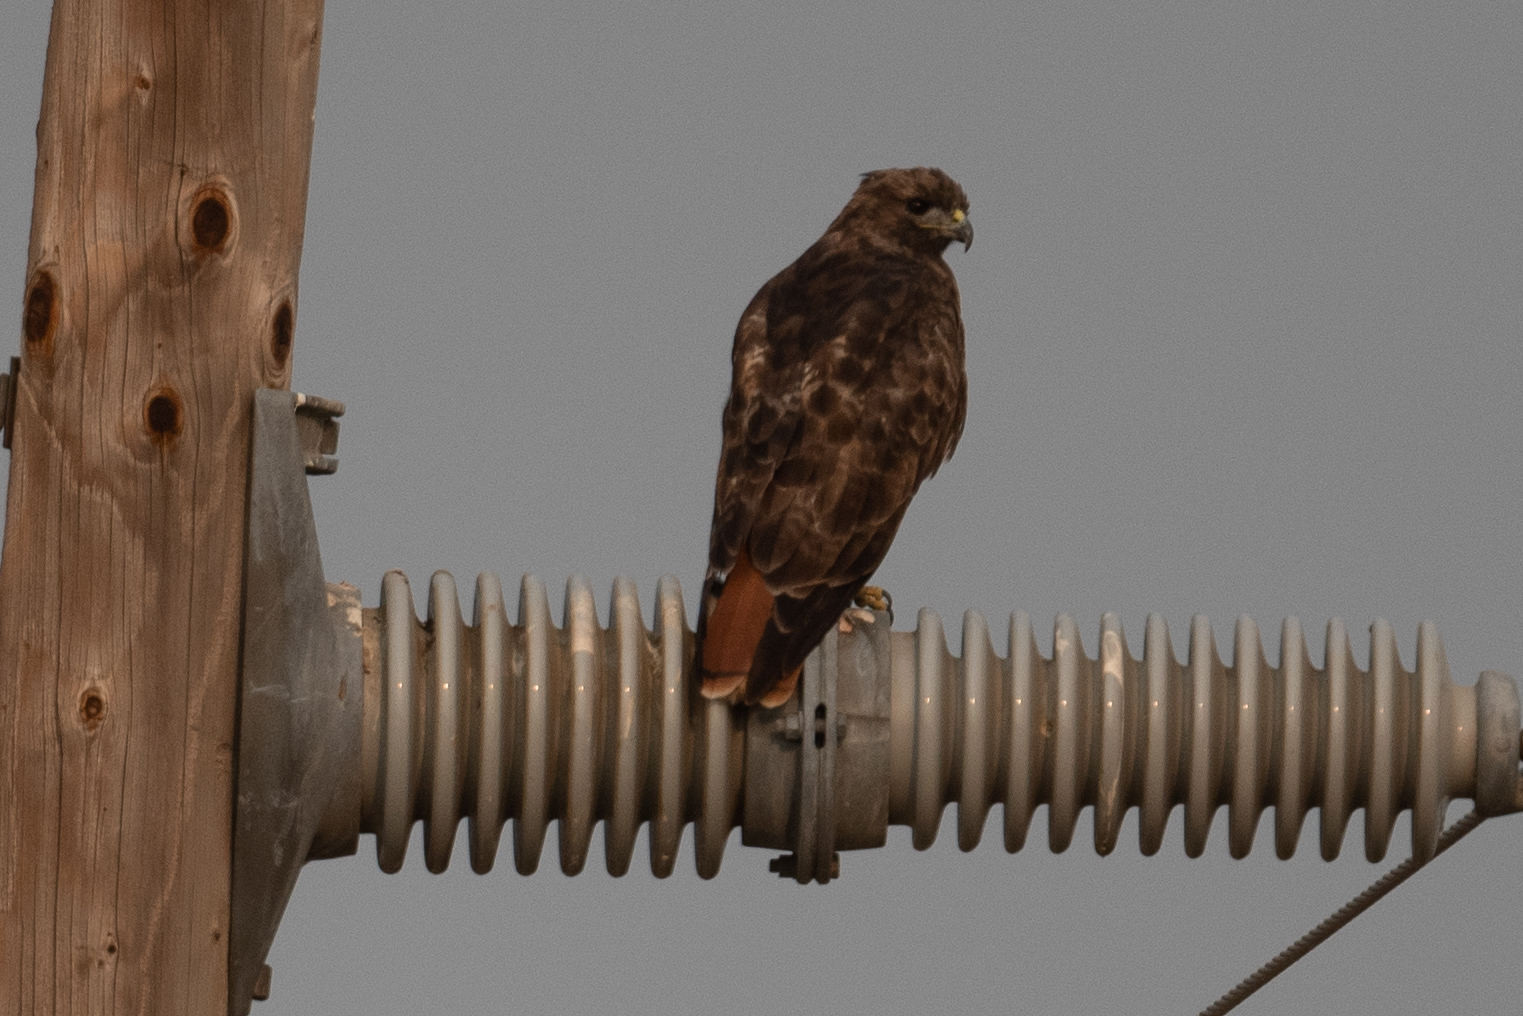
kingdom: Animalia
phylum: Chordata
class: Aves
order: Accipitriformes
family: Accipitridae
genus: Buteo
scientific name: Buteo jamaicensis
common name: Red-tailed hawk
